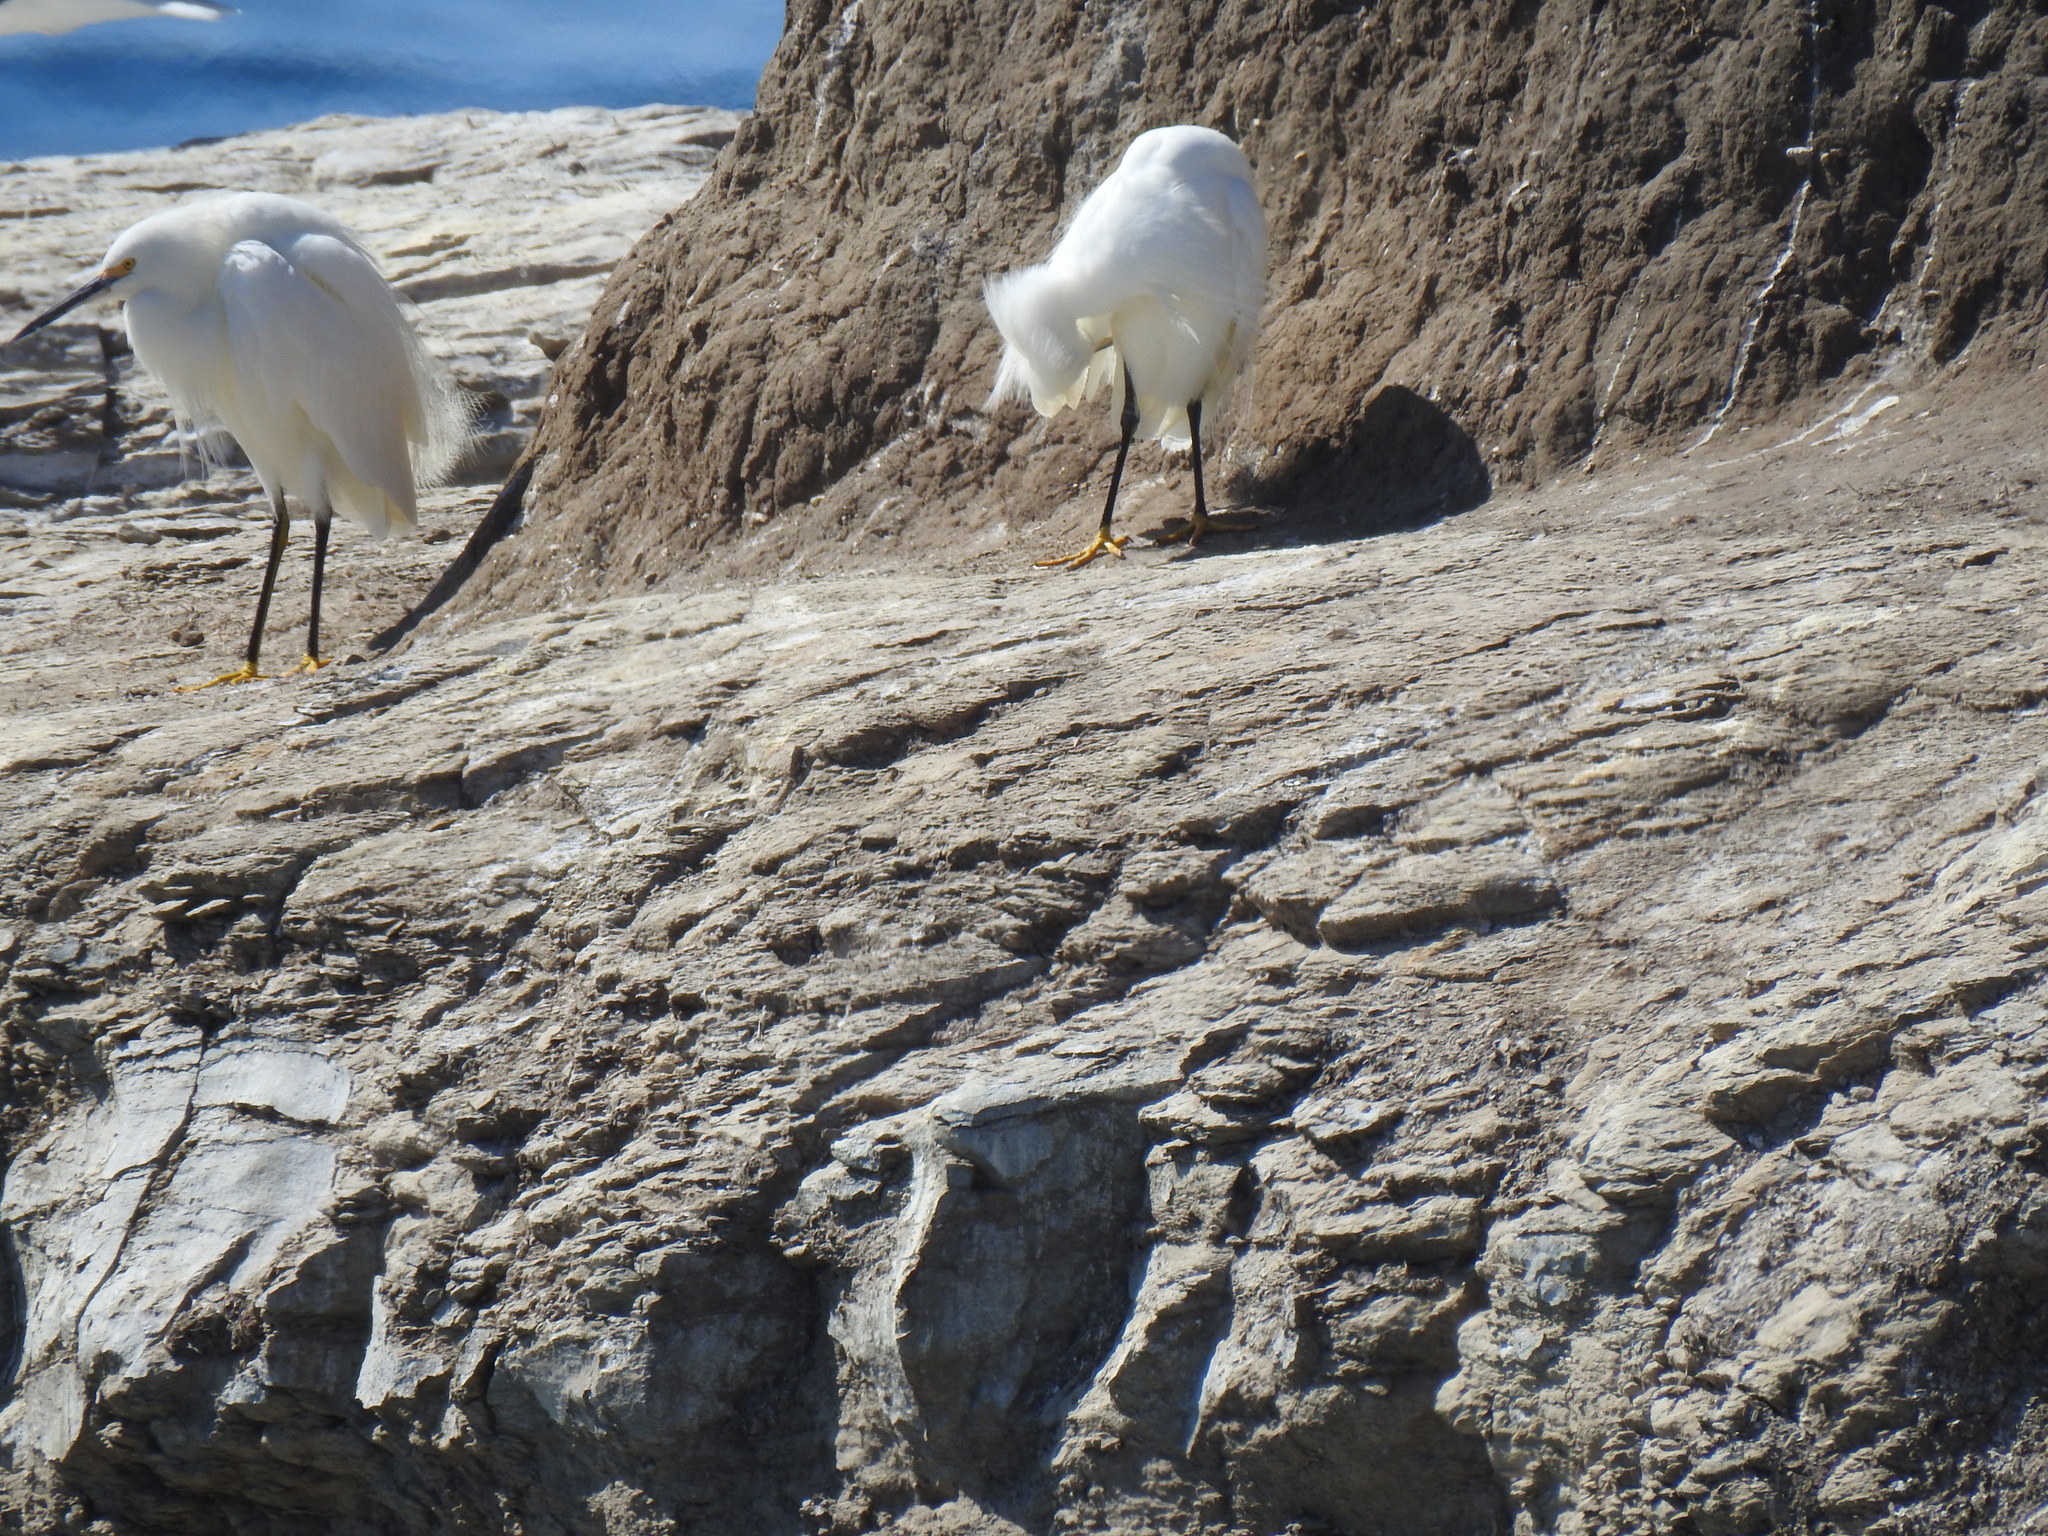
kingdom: Animalia
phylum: Chordata
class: Aves
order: Pelecaniformes
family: Ardeidae
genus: Egretta
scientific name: Egretta thula
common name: Snowy egret
